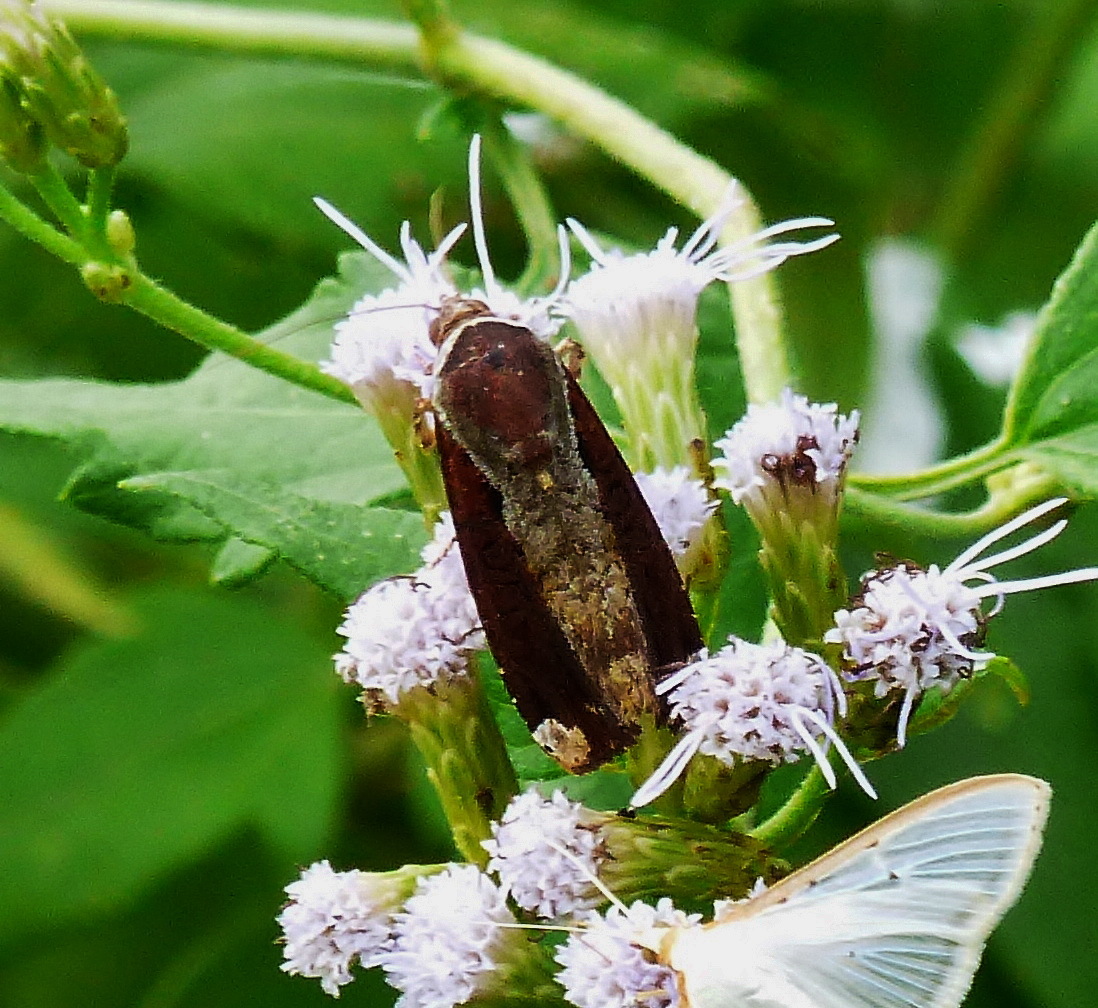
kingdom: Animalia
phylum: Arthropoda
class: Insecta
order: Lepidoptera
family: Noctuidae
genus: Magusa
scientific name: Magusa divaricata
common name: Orb narrow-winged moth
